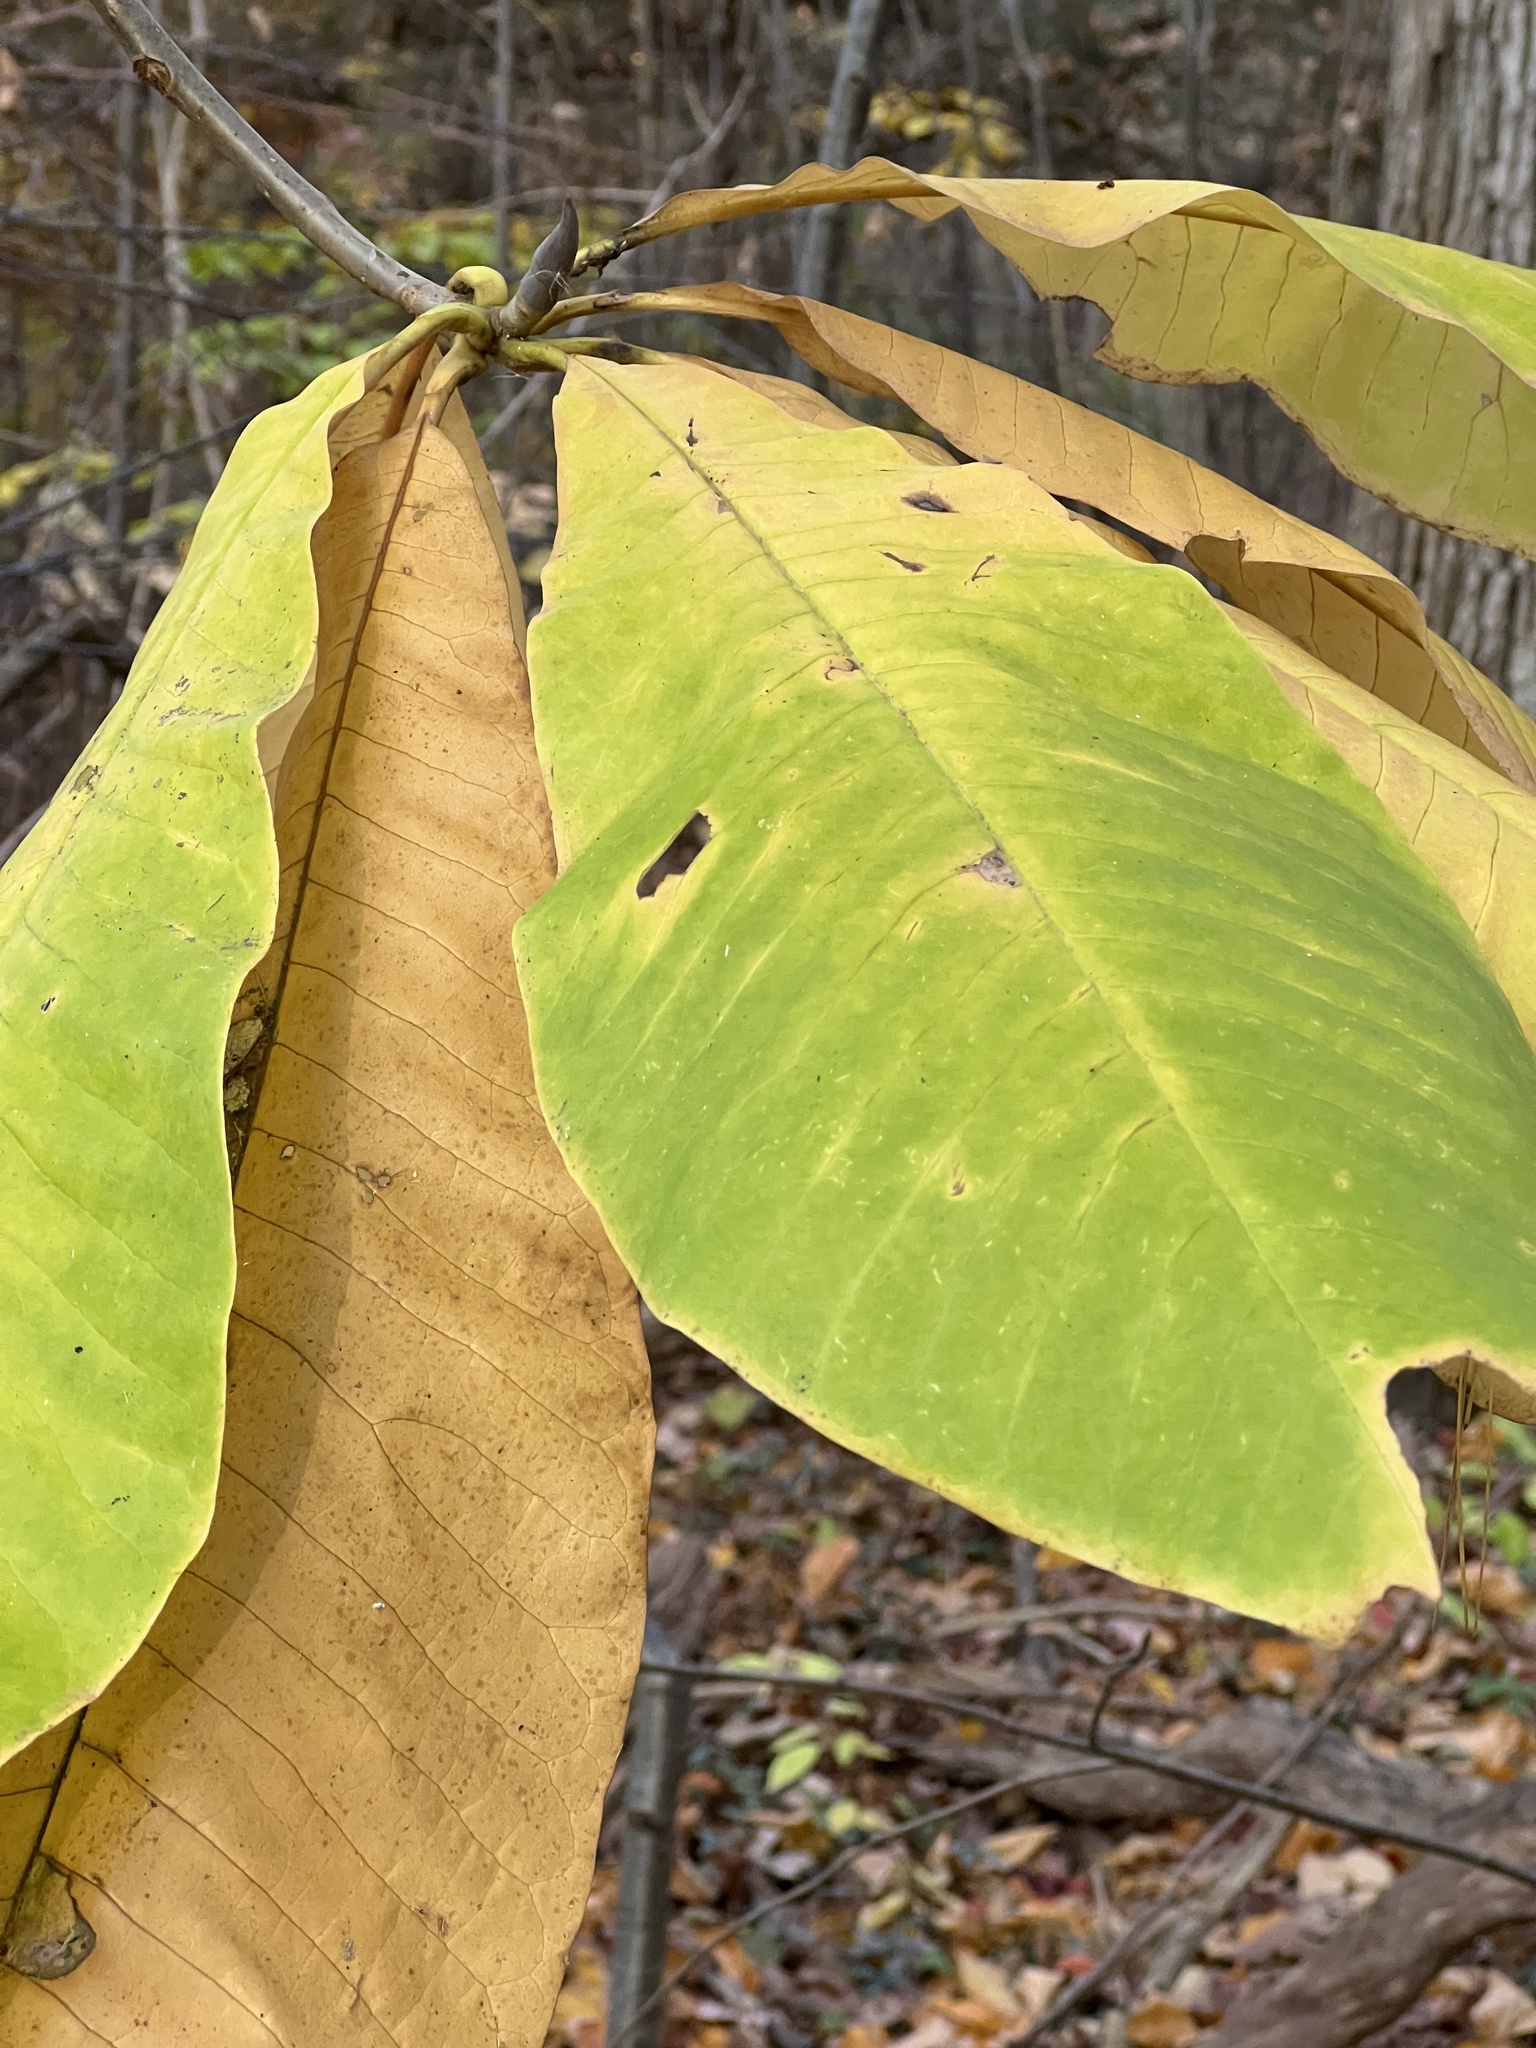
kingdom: Plantae
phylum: Tracheophyta
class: Magnoliopsida
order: Magnoliales
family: Magnoliaceae
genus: Magnolia
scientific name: Magnolia tripetala
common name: Umbrella magnolia
